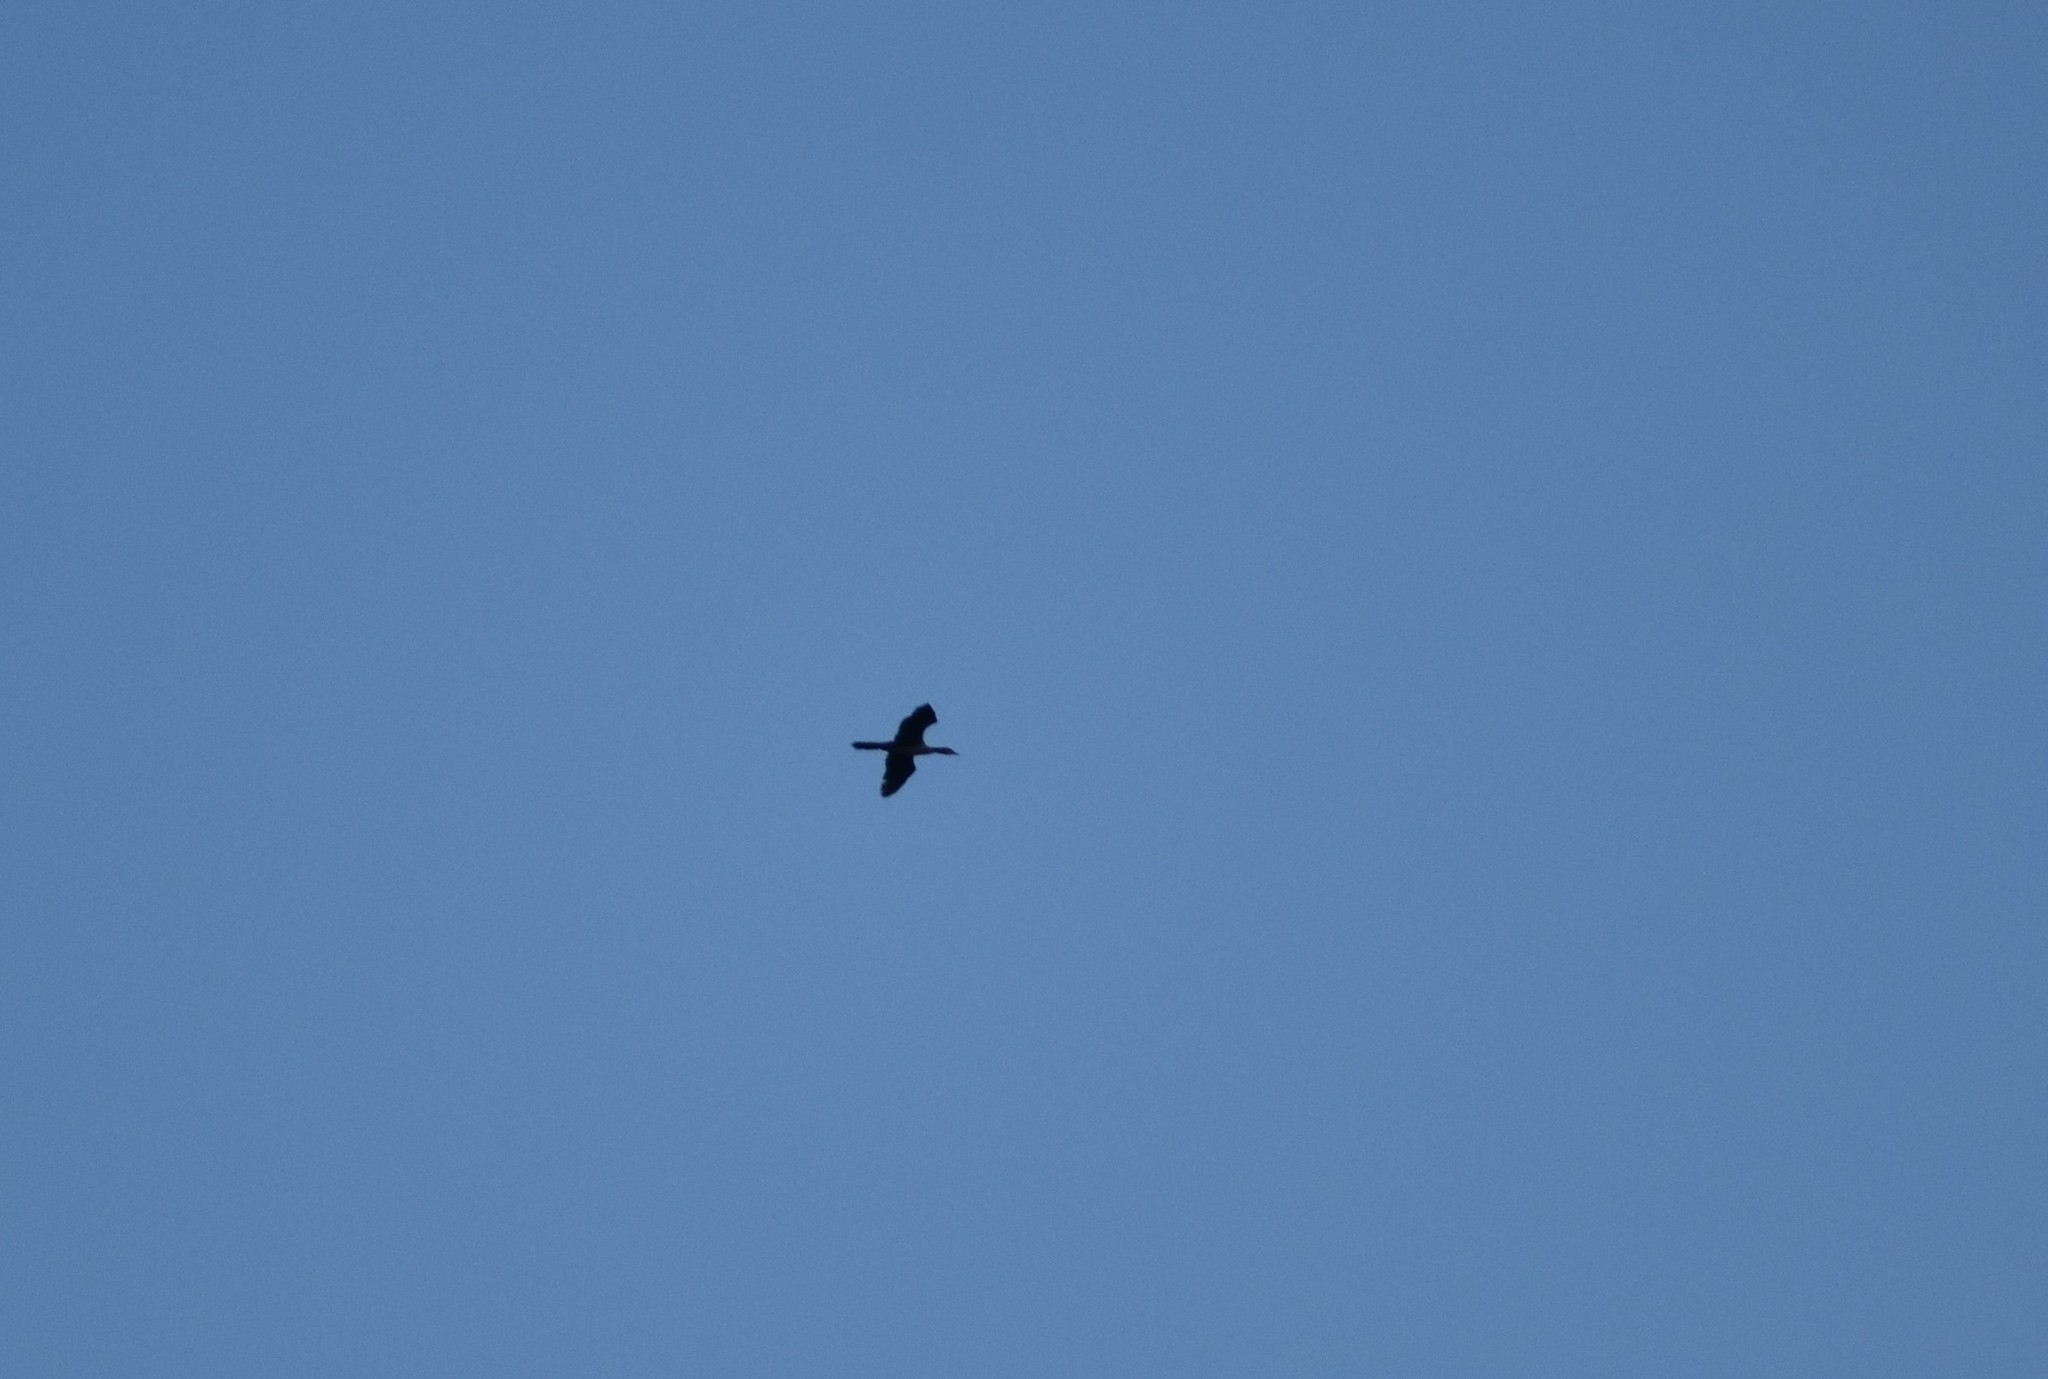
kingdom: Animalia
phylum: Chordata
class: Aves
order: Suliformes
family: Phalacrocoracidae
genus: Microcarbo
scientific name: Microcarbo africanus
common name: Long-tailed cormorant
